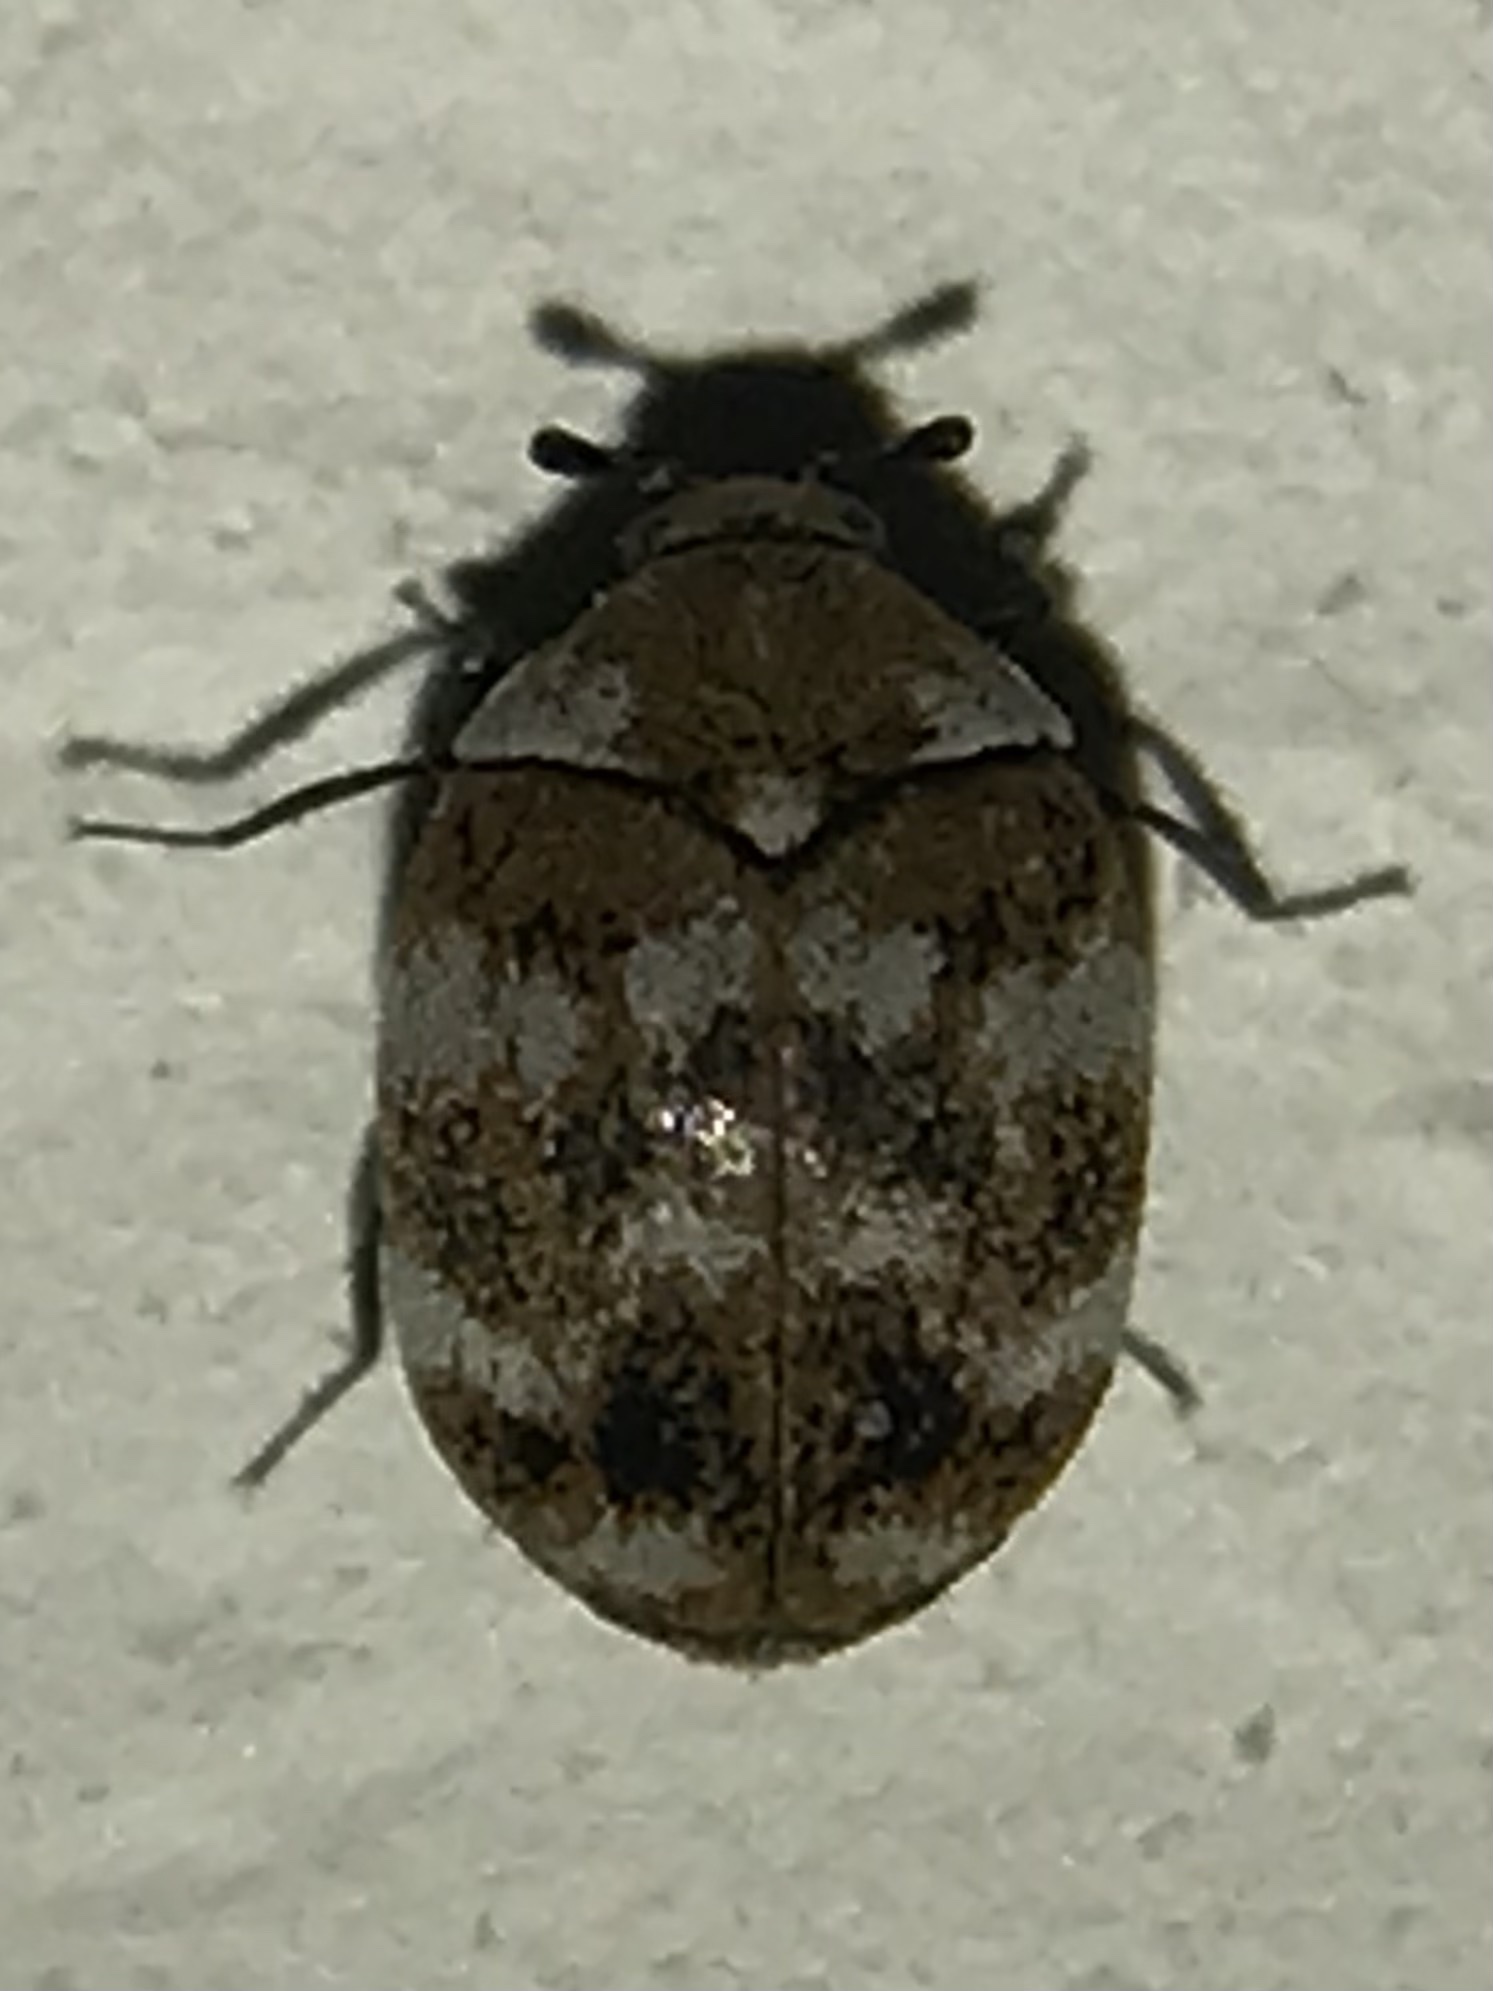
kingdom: Animalia
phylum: Arthropoda
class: Insecta
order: Coleoptera
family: Dermestidae
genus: Anthrenus
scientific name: Anthrenus verbasci
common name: Varied carpet beetle
